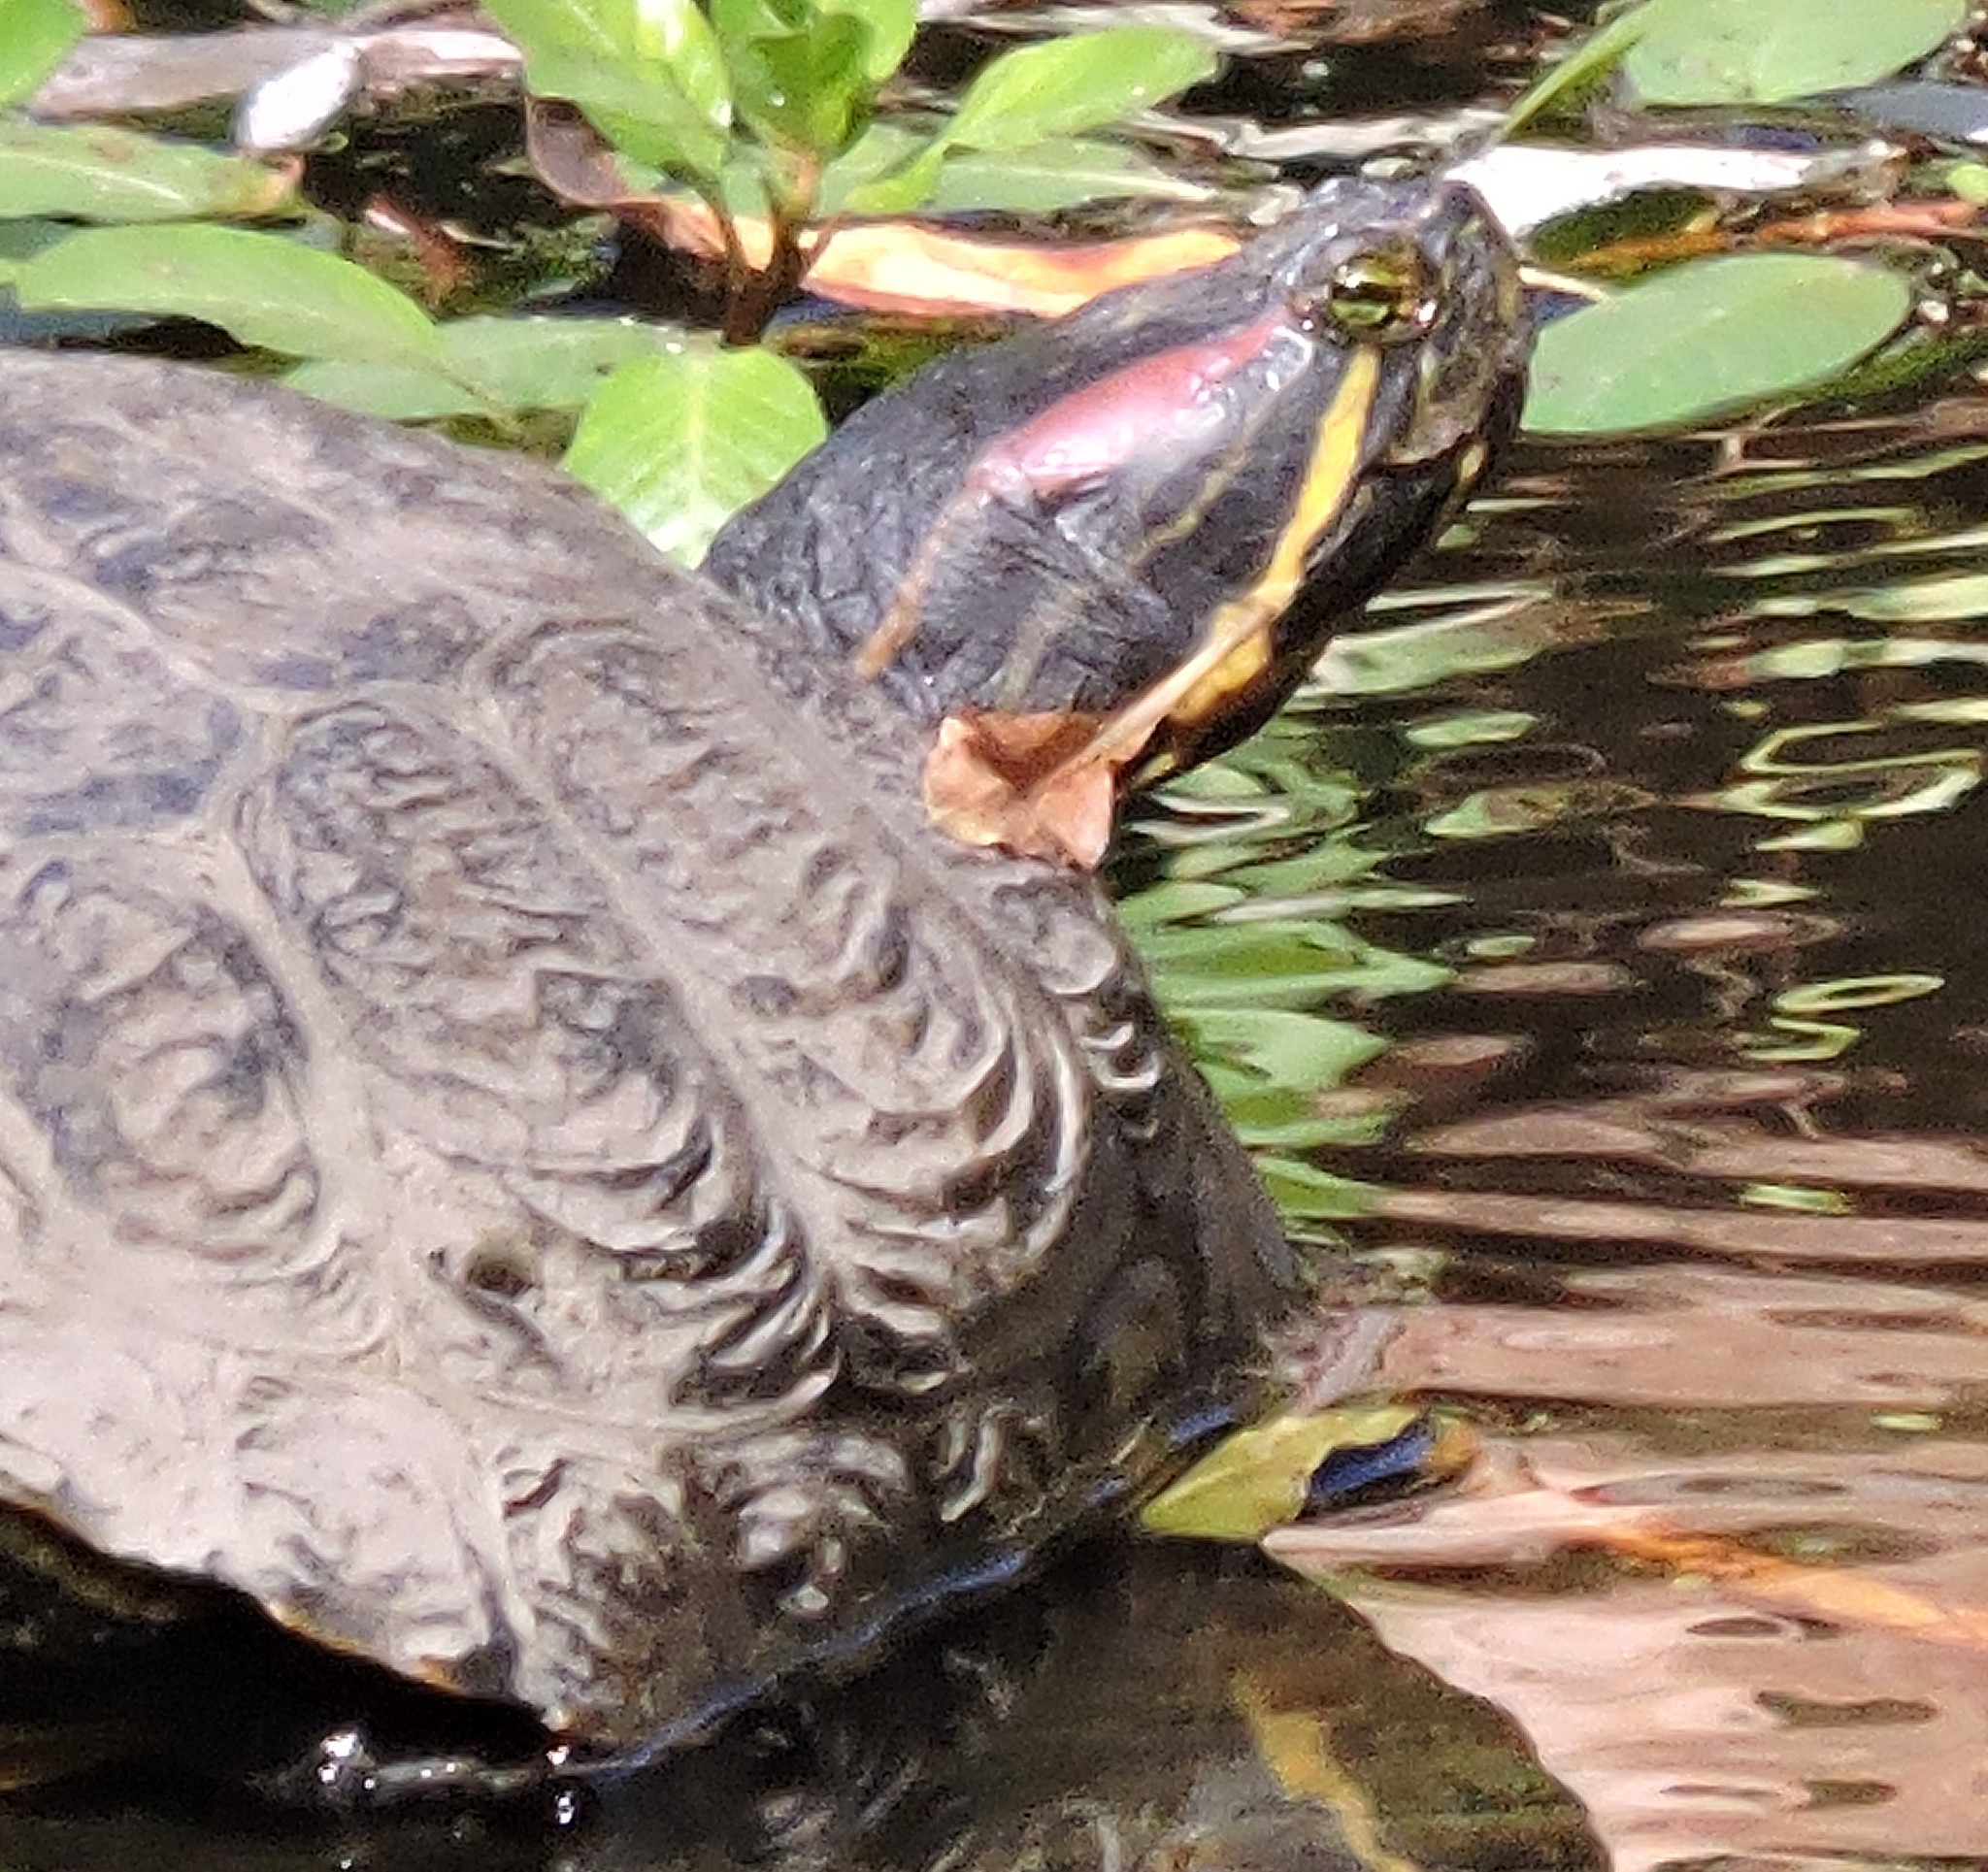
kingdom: Animalia
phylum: Chordata
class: Testudines
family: Emydidae
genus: Trachemys
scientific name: Trachemys scripta
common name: Slider
